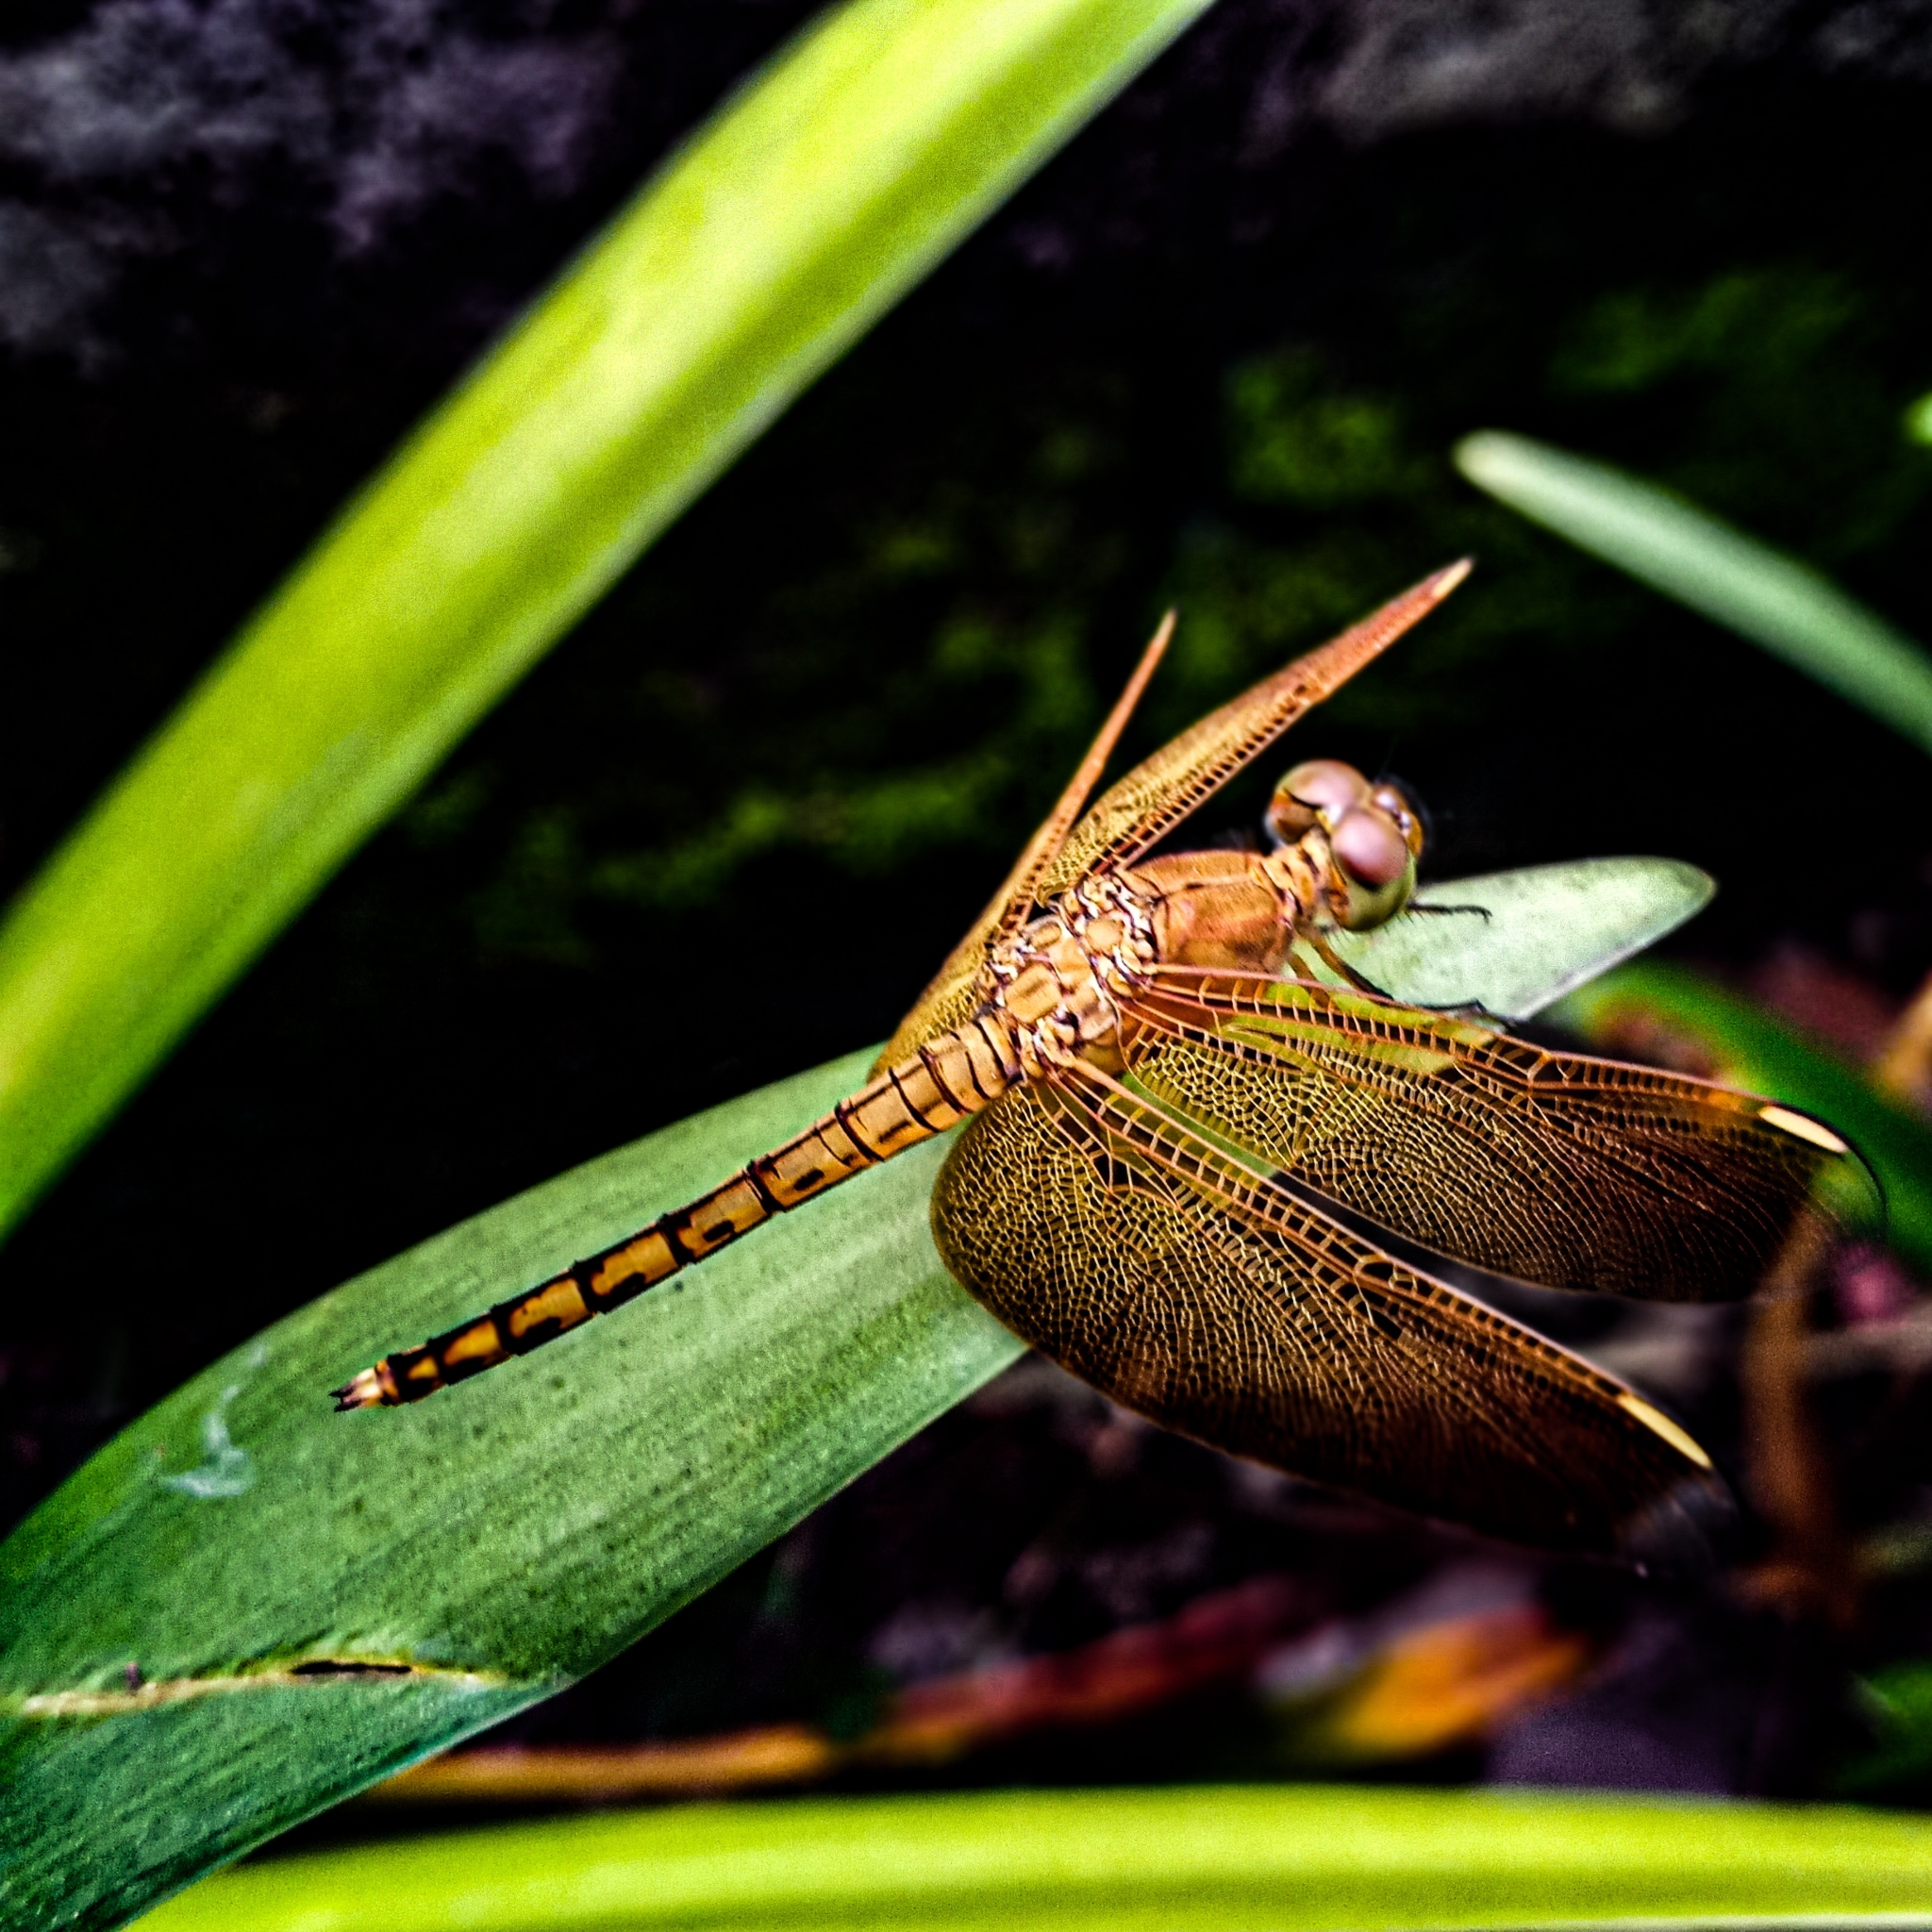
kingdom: Animalia
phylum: Arthropoda
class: Insecta
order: Odonata
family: Libellulidae
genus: Neurothemis
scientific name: Neurothemis terminata
